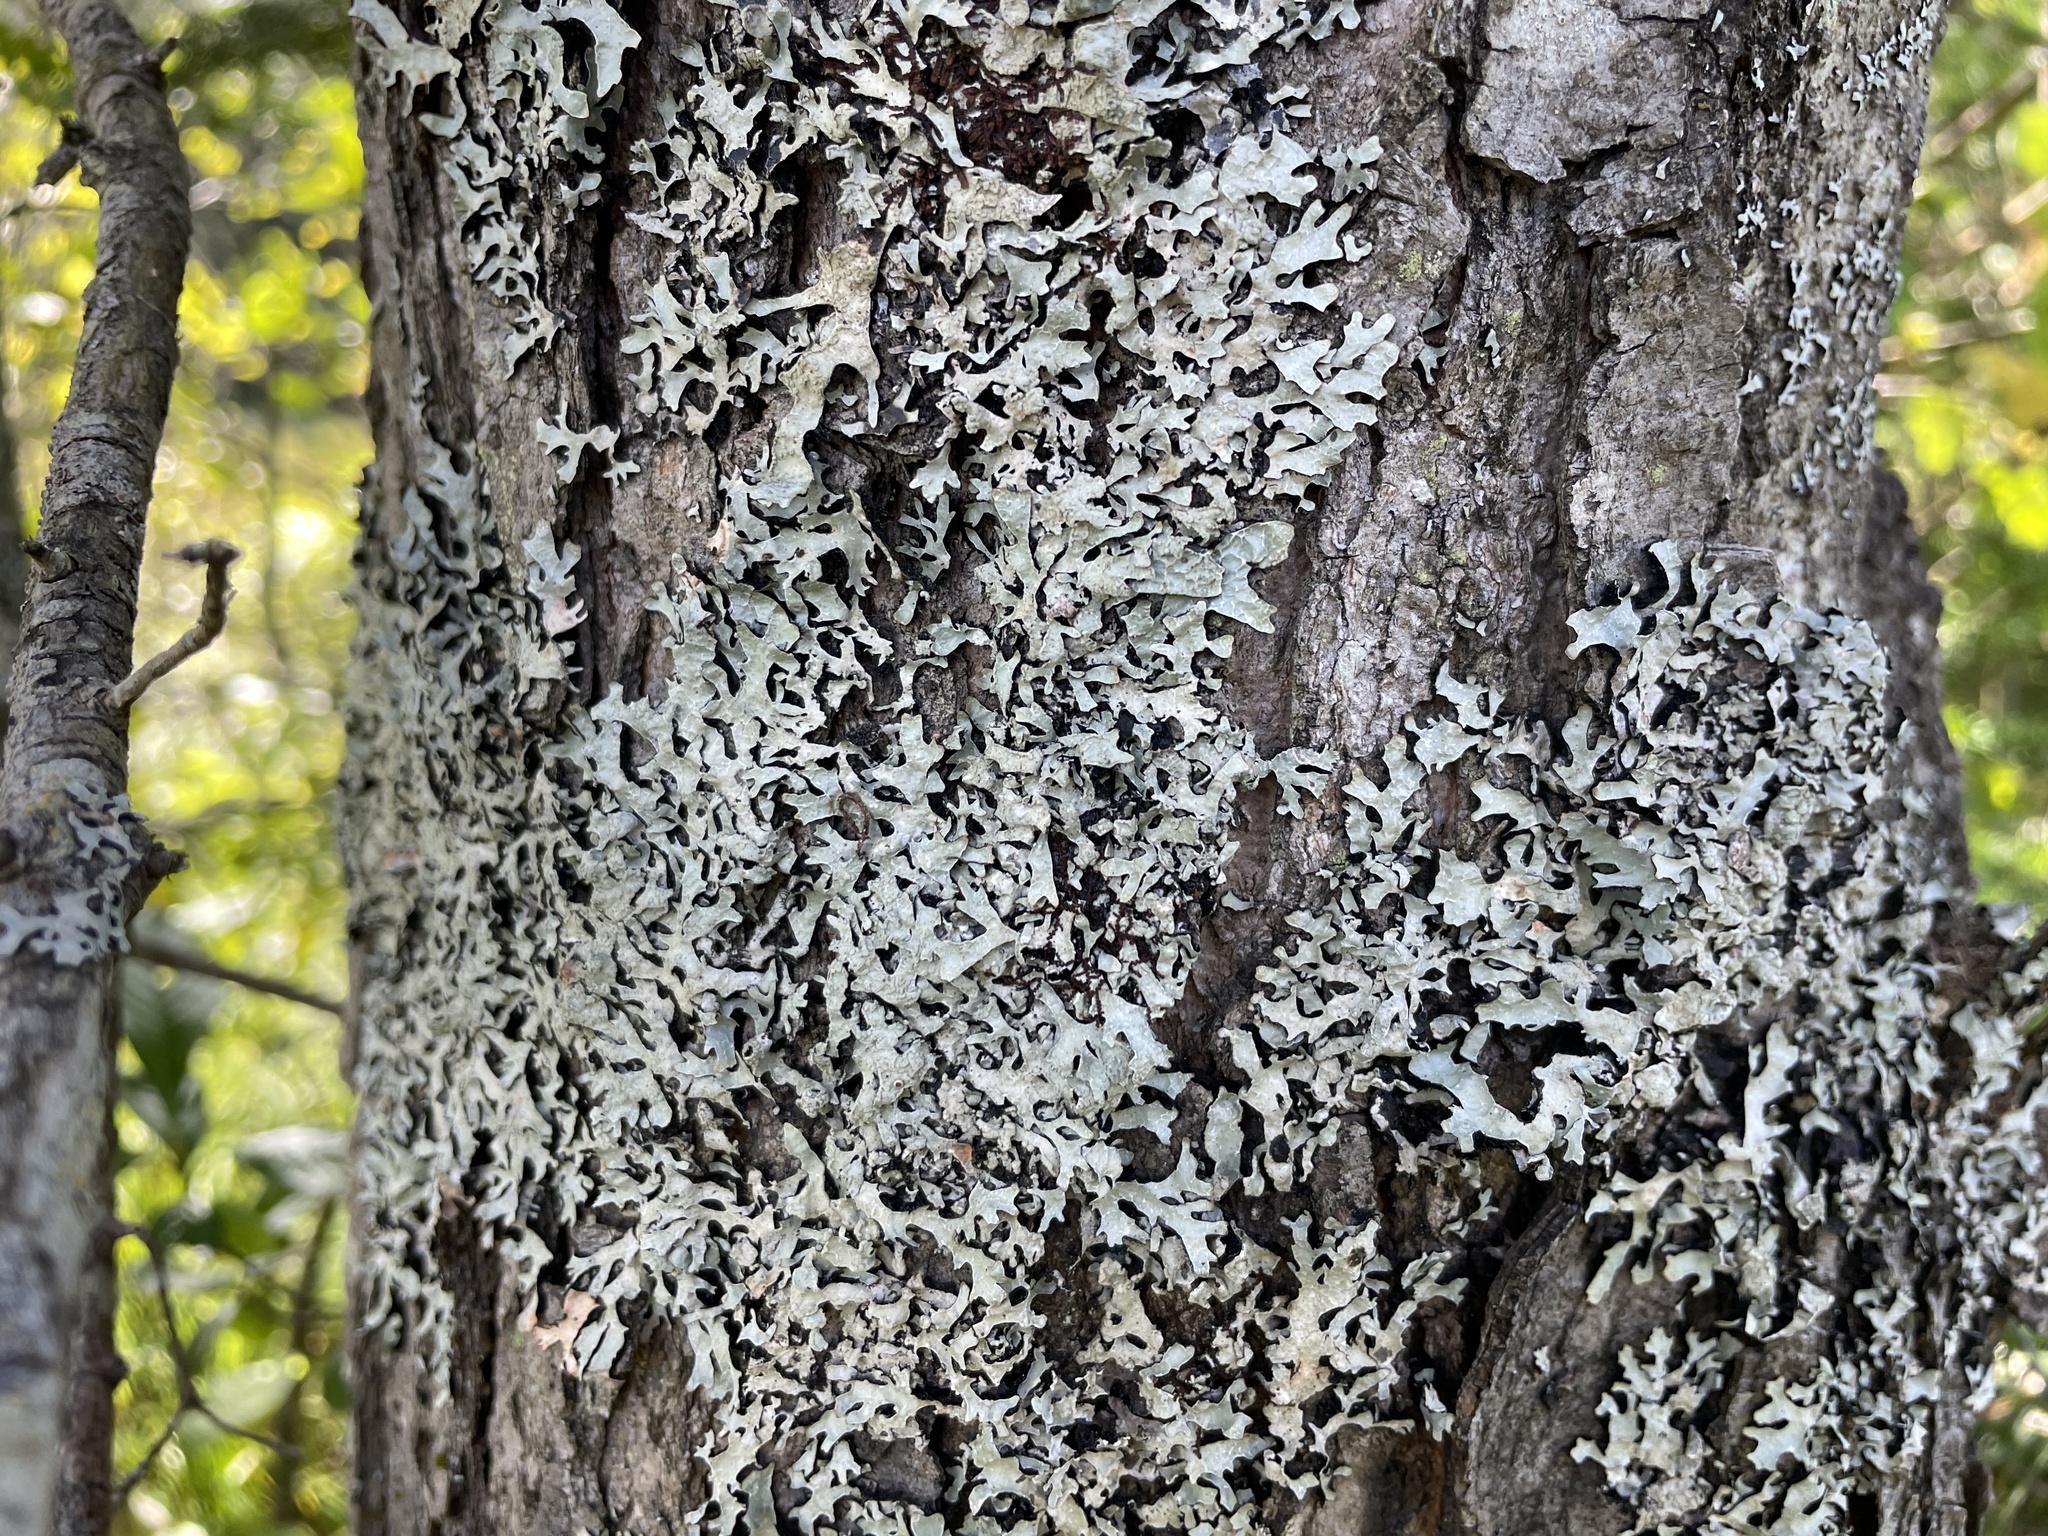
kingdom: Fungi
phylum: Ascomycota
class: Lecanoromycetes
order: Lecanorales
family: Parmeliaceae
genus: Parmelia
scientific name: Parmelia sulcata
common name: Netted shield lichen
